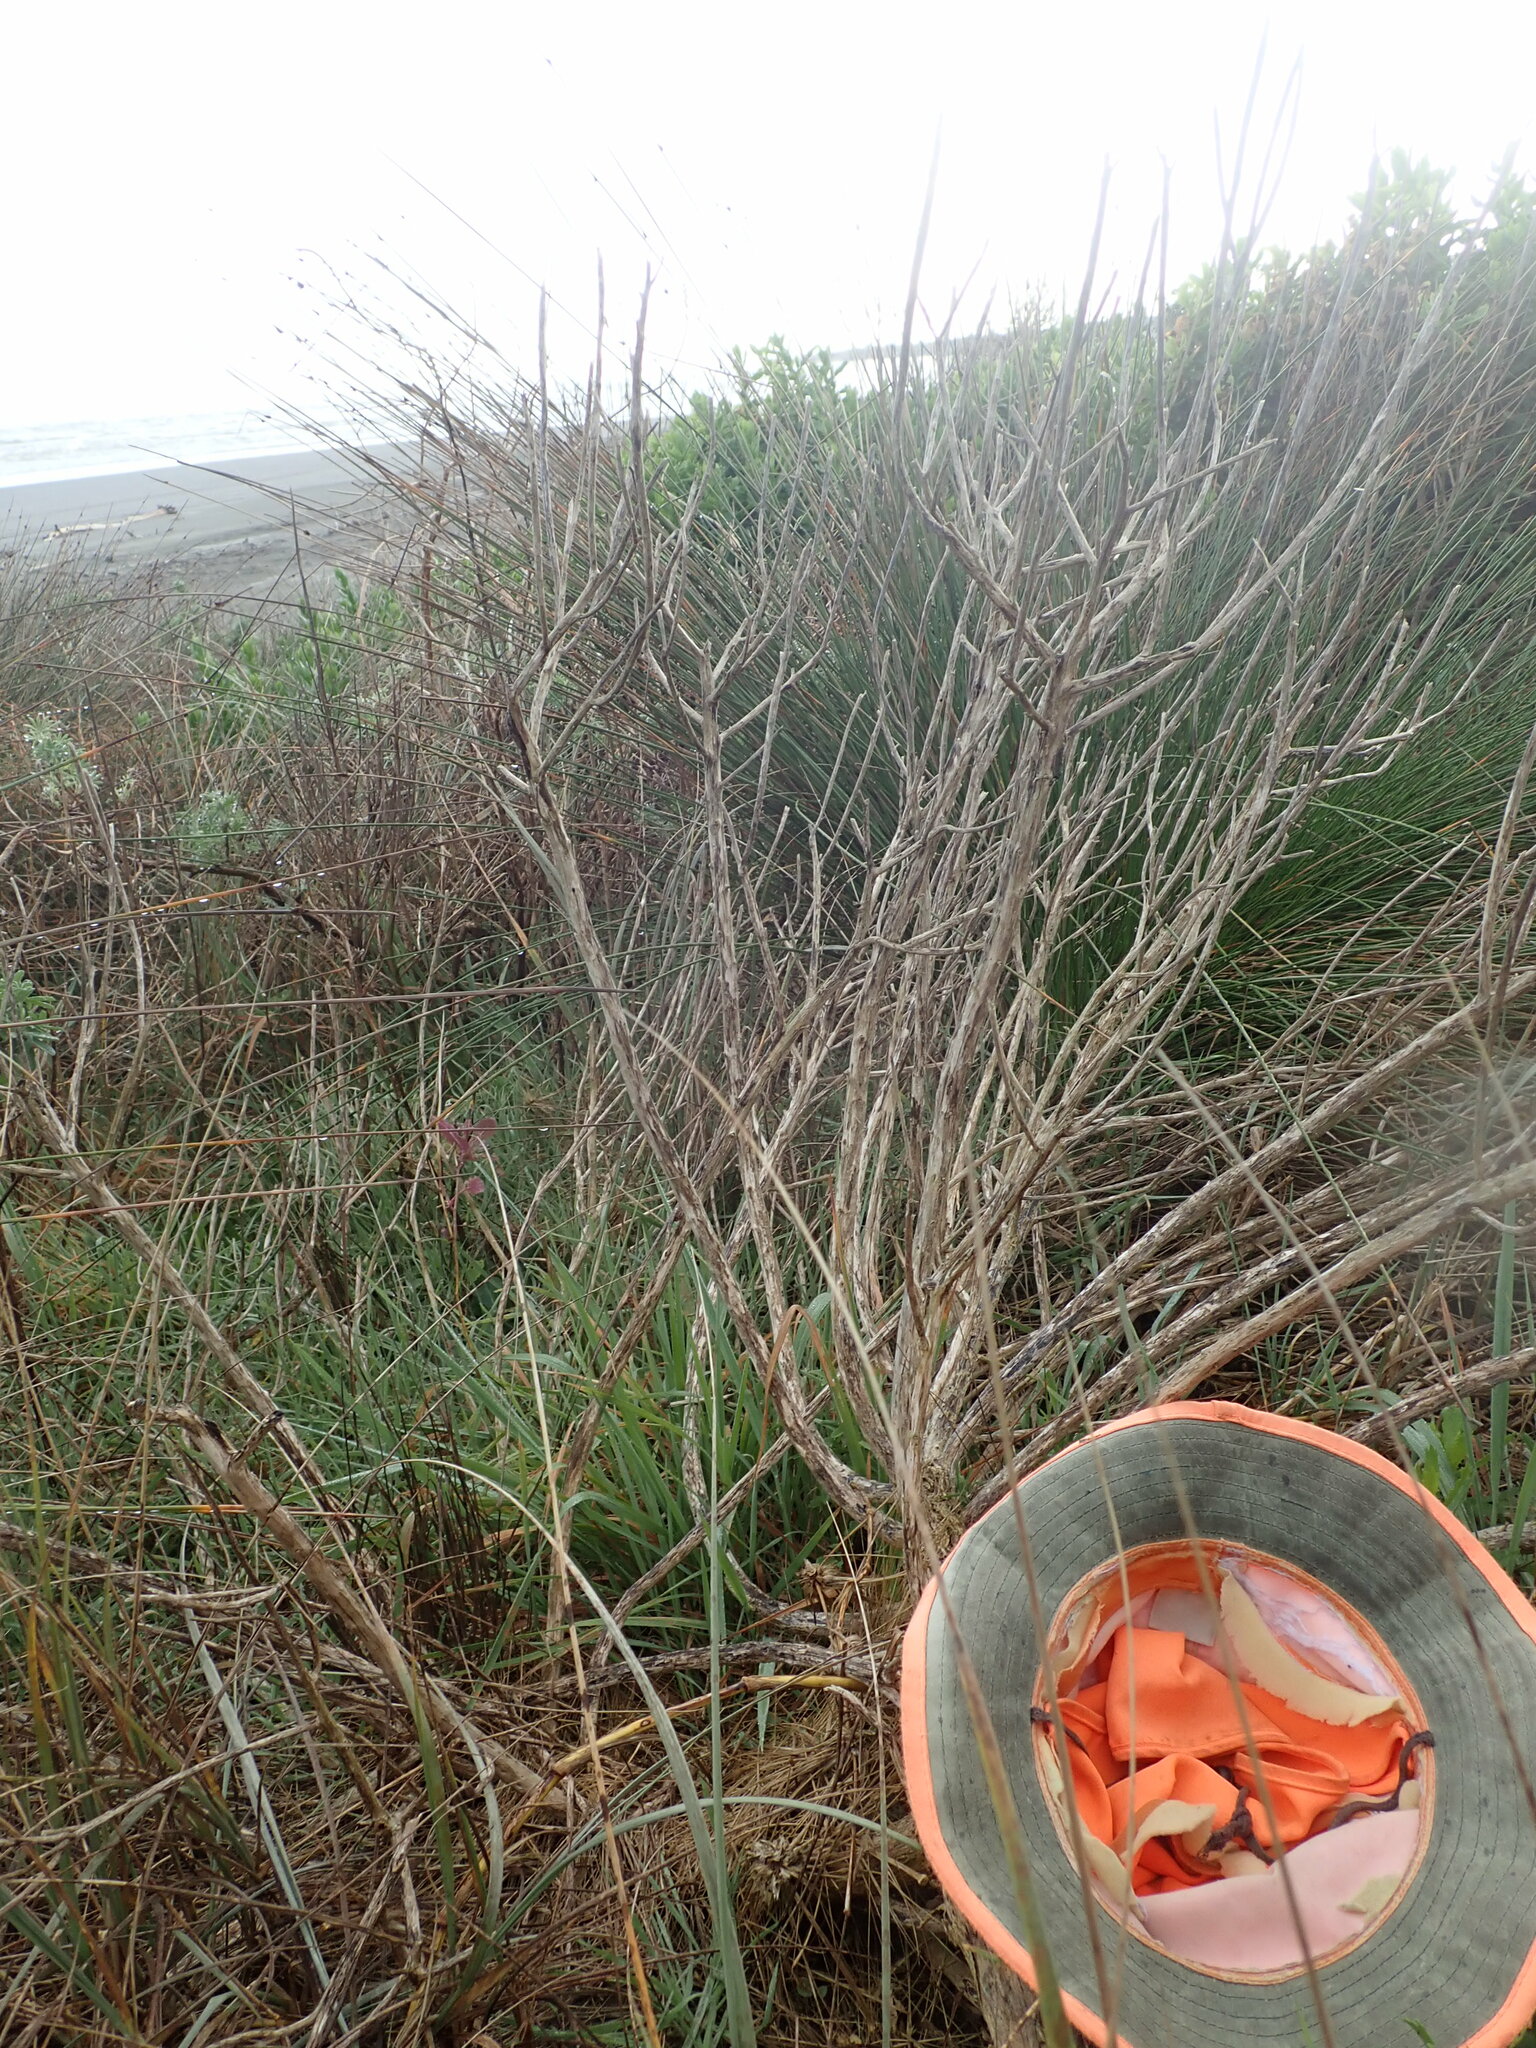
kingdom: Plantae
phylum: Tracheophyta
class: Magnoliopsida
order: Caryophyllales
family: Caryophyllaceae
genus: Silene
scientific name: Silene gallica
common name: Small-flowered catchfly
